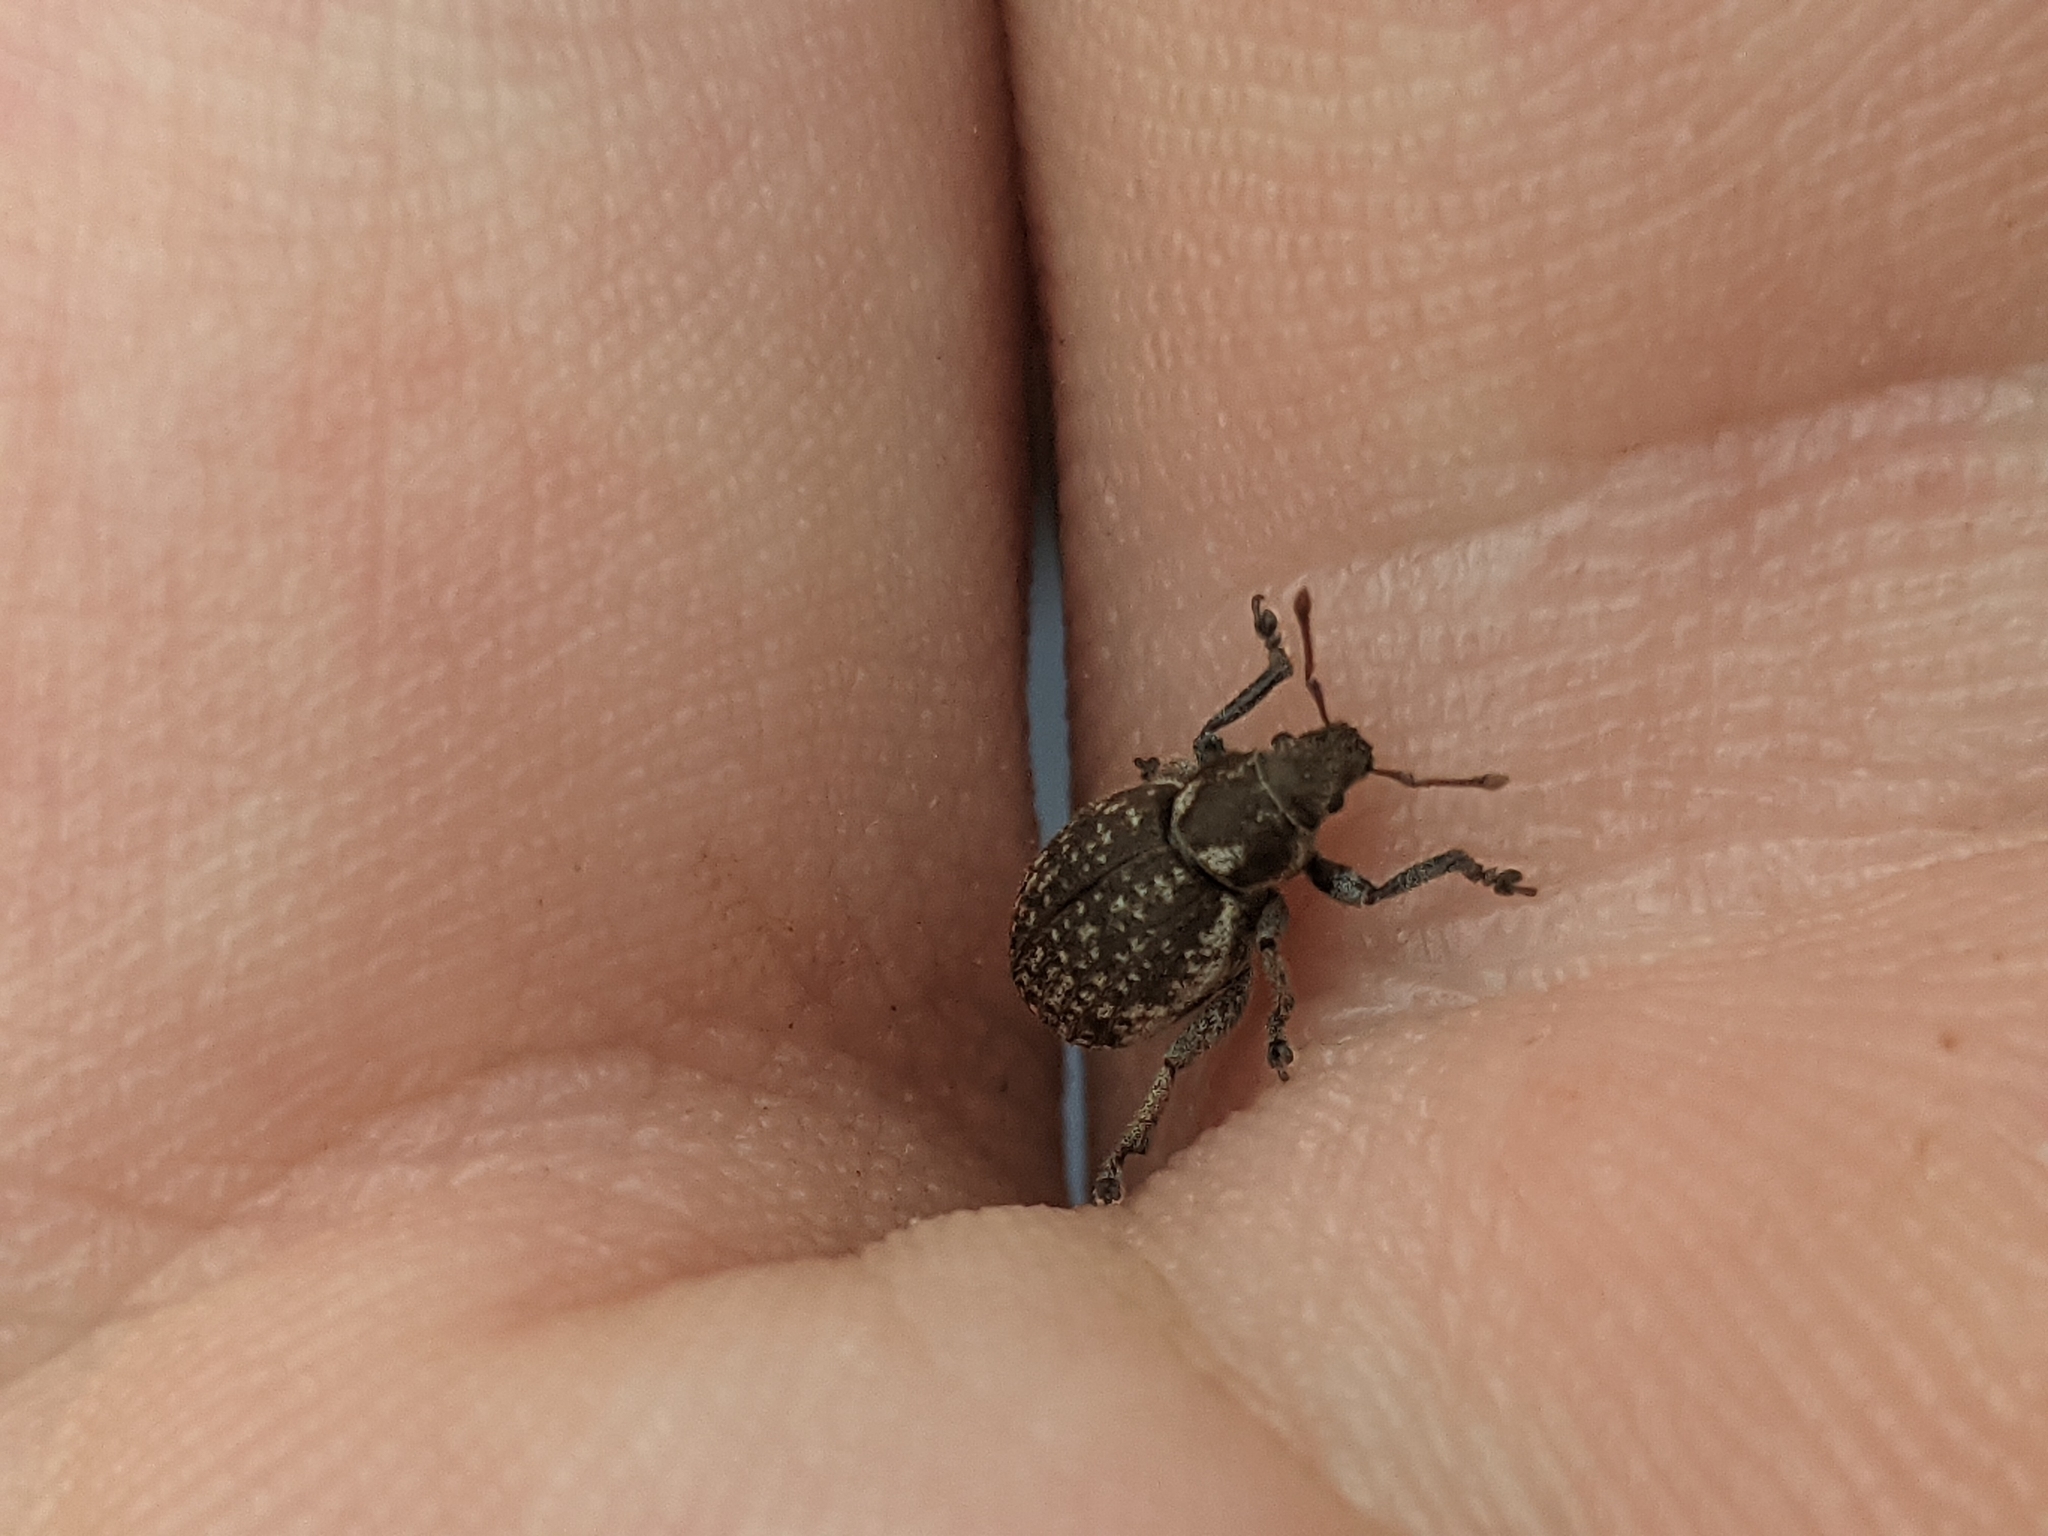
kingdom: Animalia
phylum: Arthropoda
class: Insecta
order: Coleoptera
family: Curculionidae
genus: Philopedon
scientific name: Philopedon plagiatum
